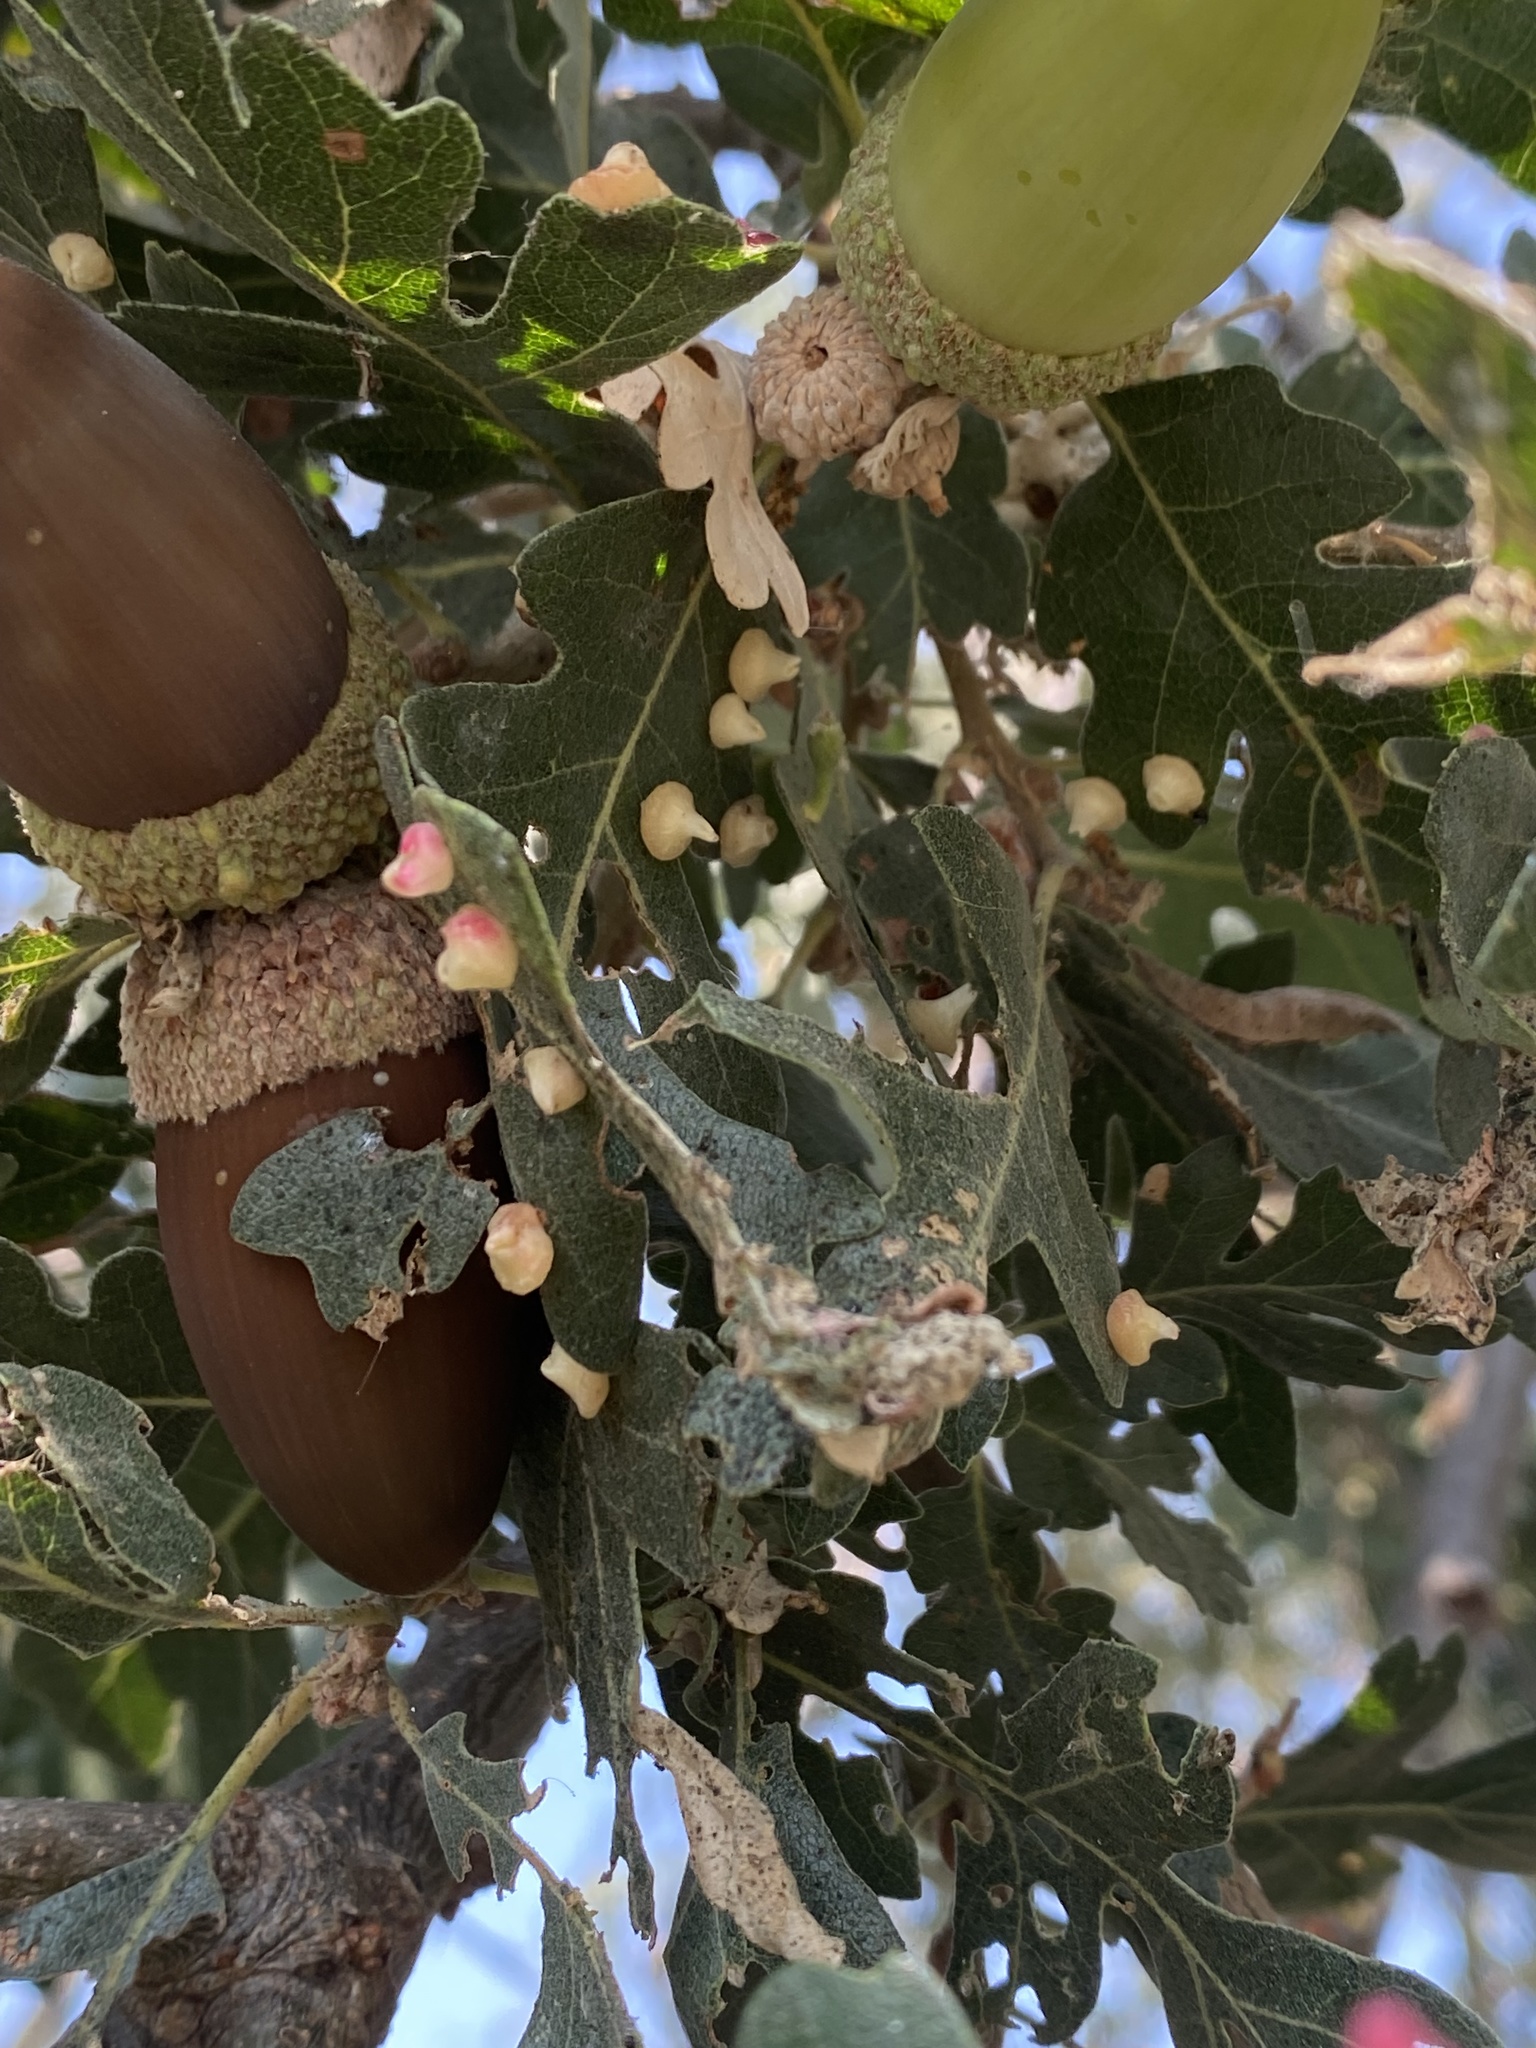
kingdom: Animalia
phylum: Arthropoda
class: Insecta
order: Hymenoptera
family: Cynipidae
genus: Andricus
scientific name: Andricus
